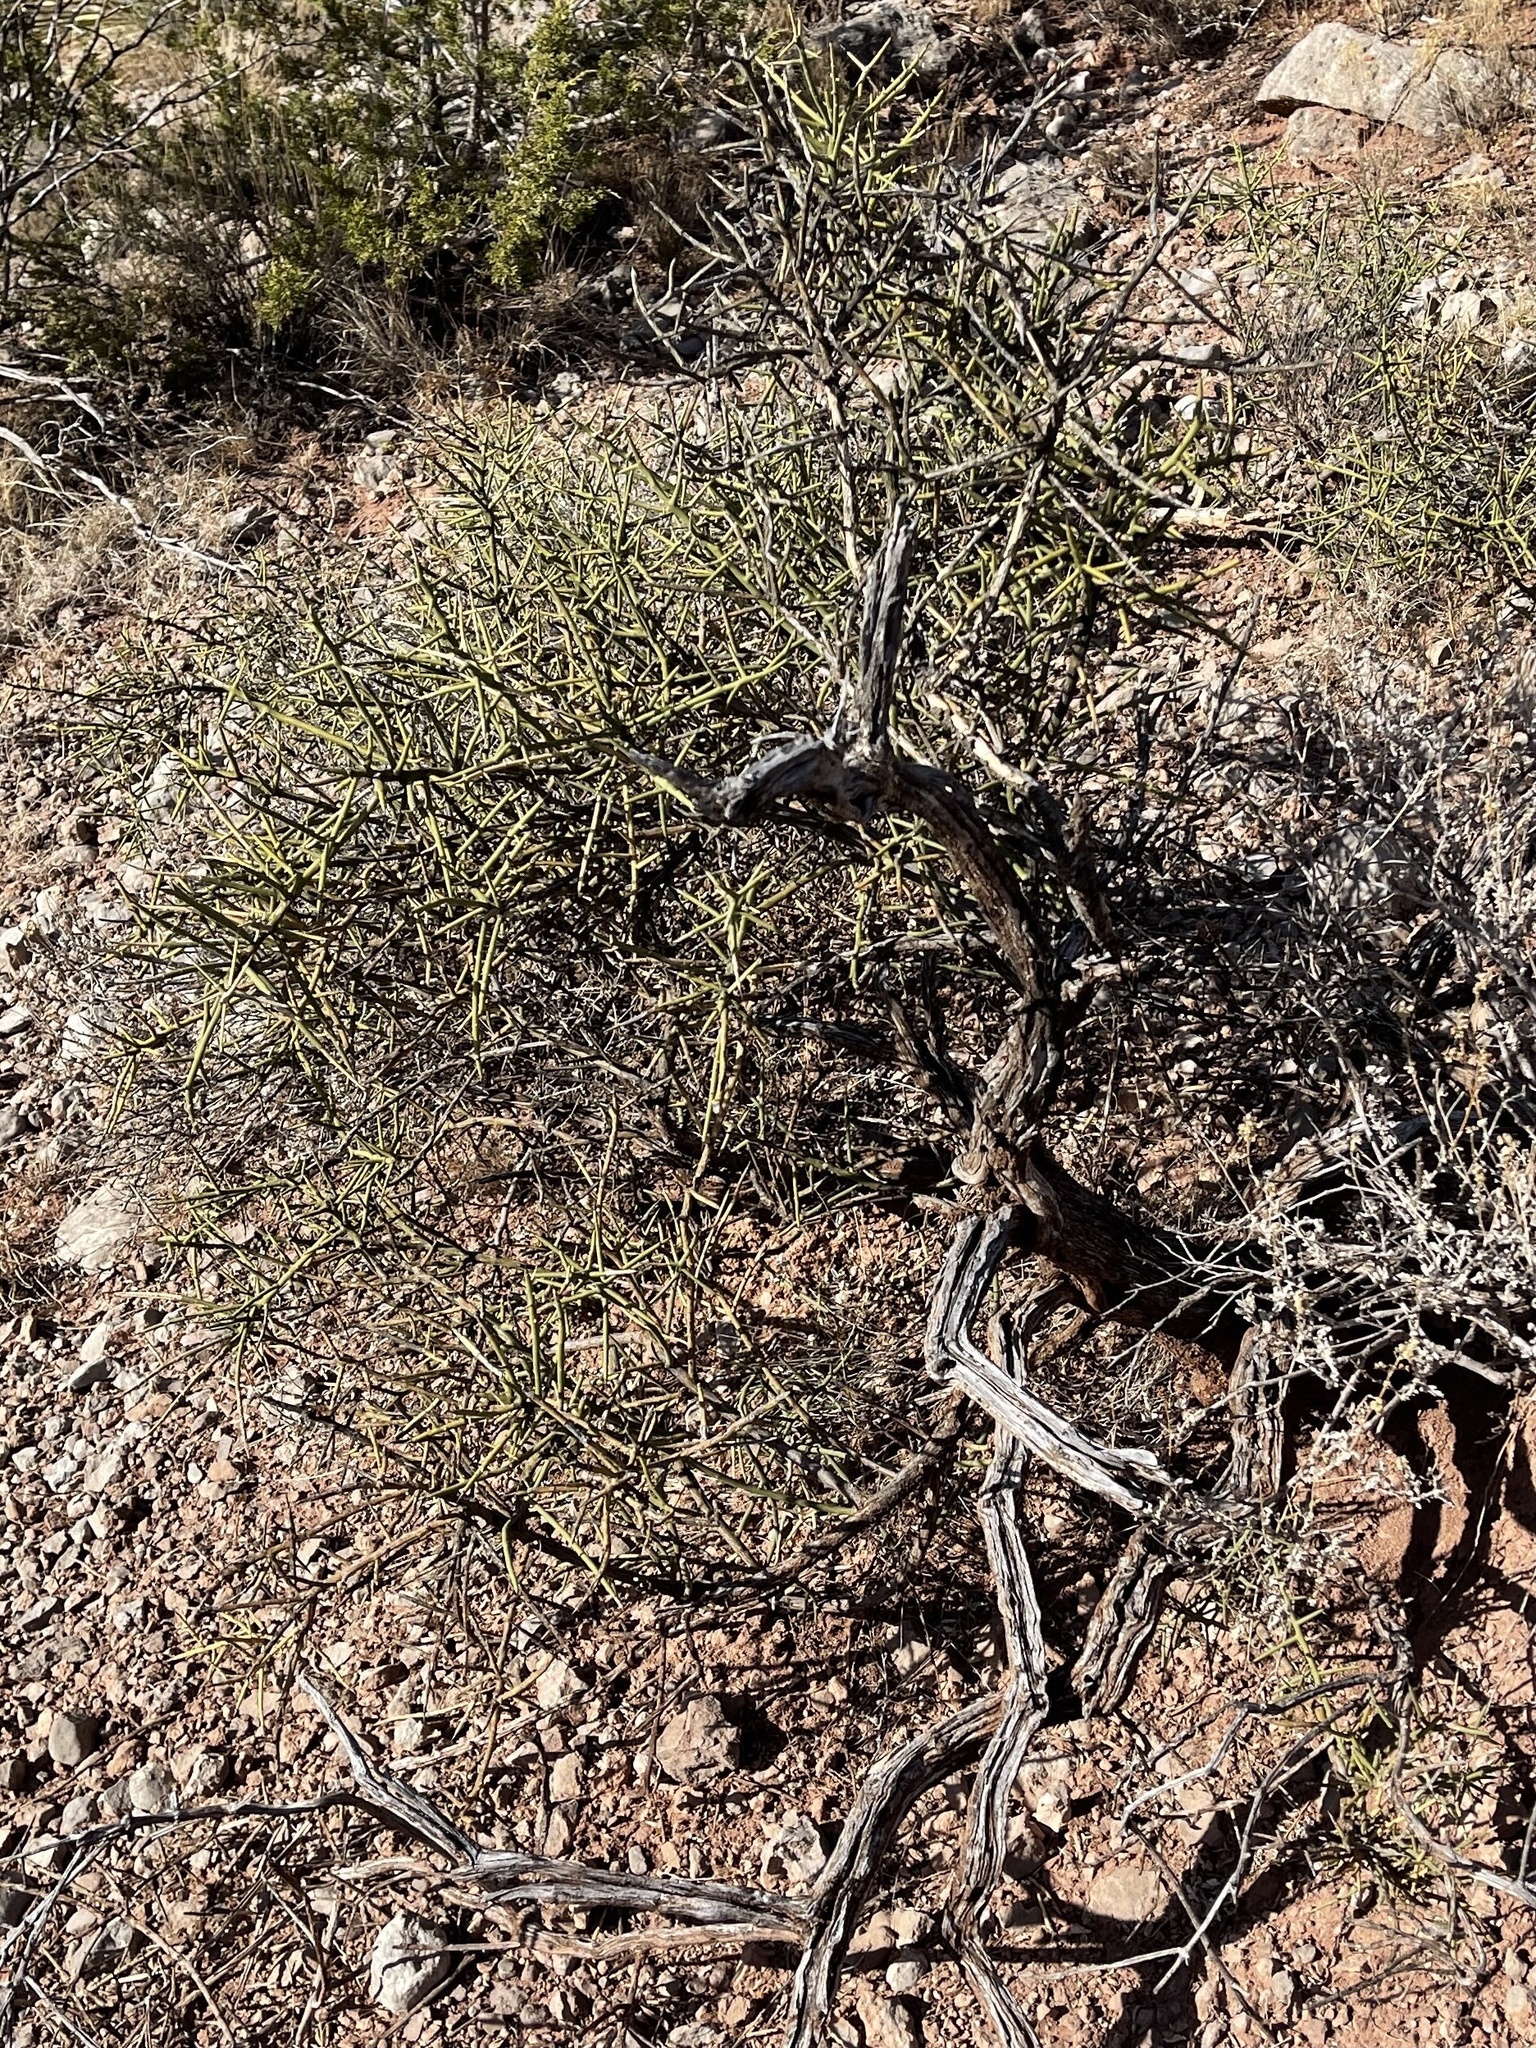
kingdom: Plantae
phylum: Tracheophyta
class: Magnoliopsida
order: Brassicales
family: Koeberliniaceae
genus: Koeberlinia
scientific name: Koeberlinia spinosa
